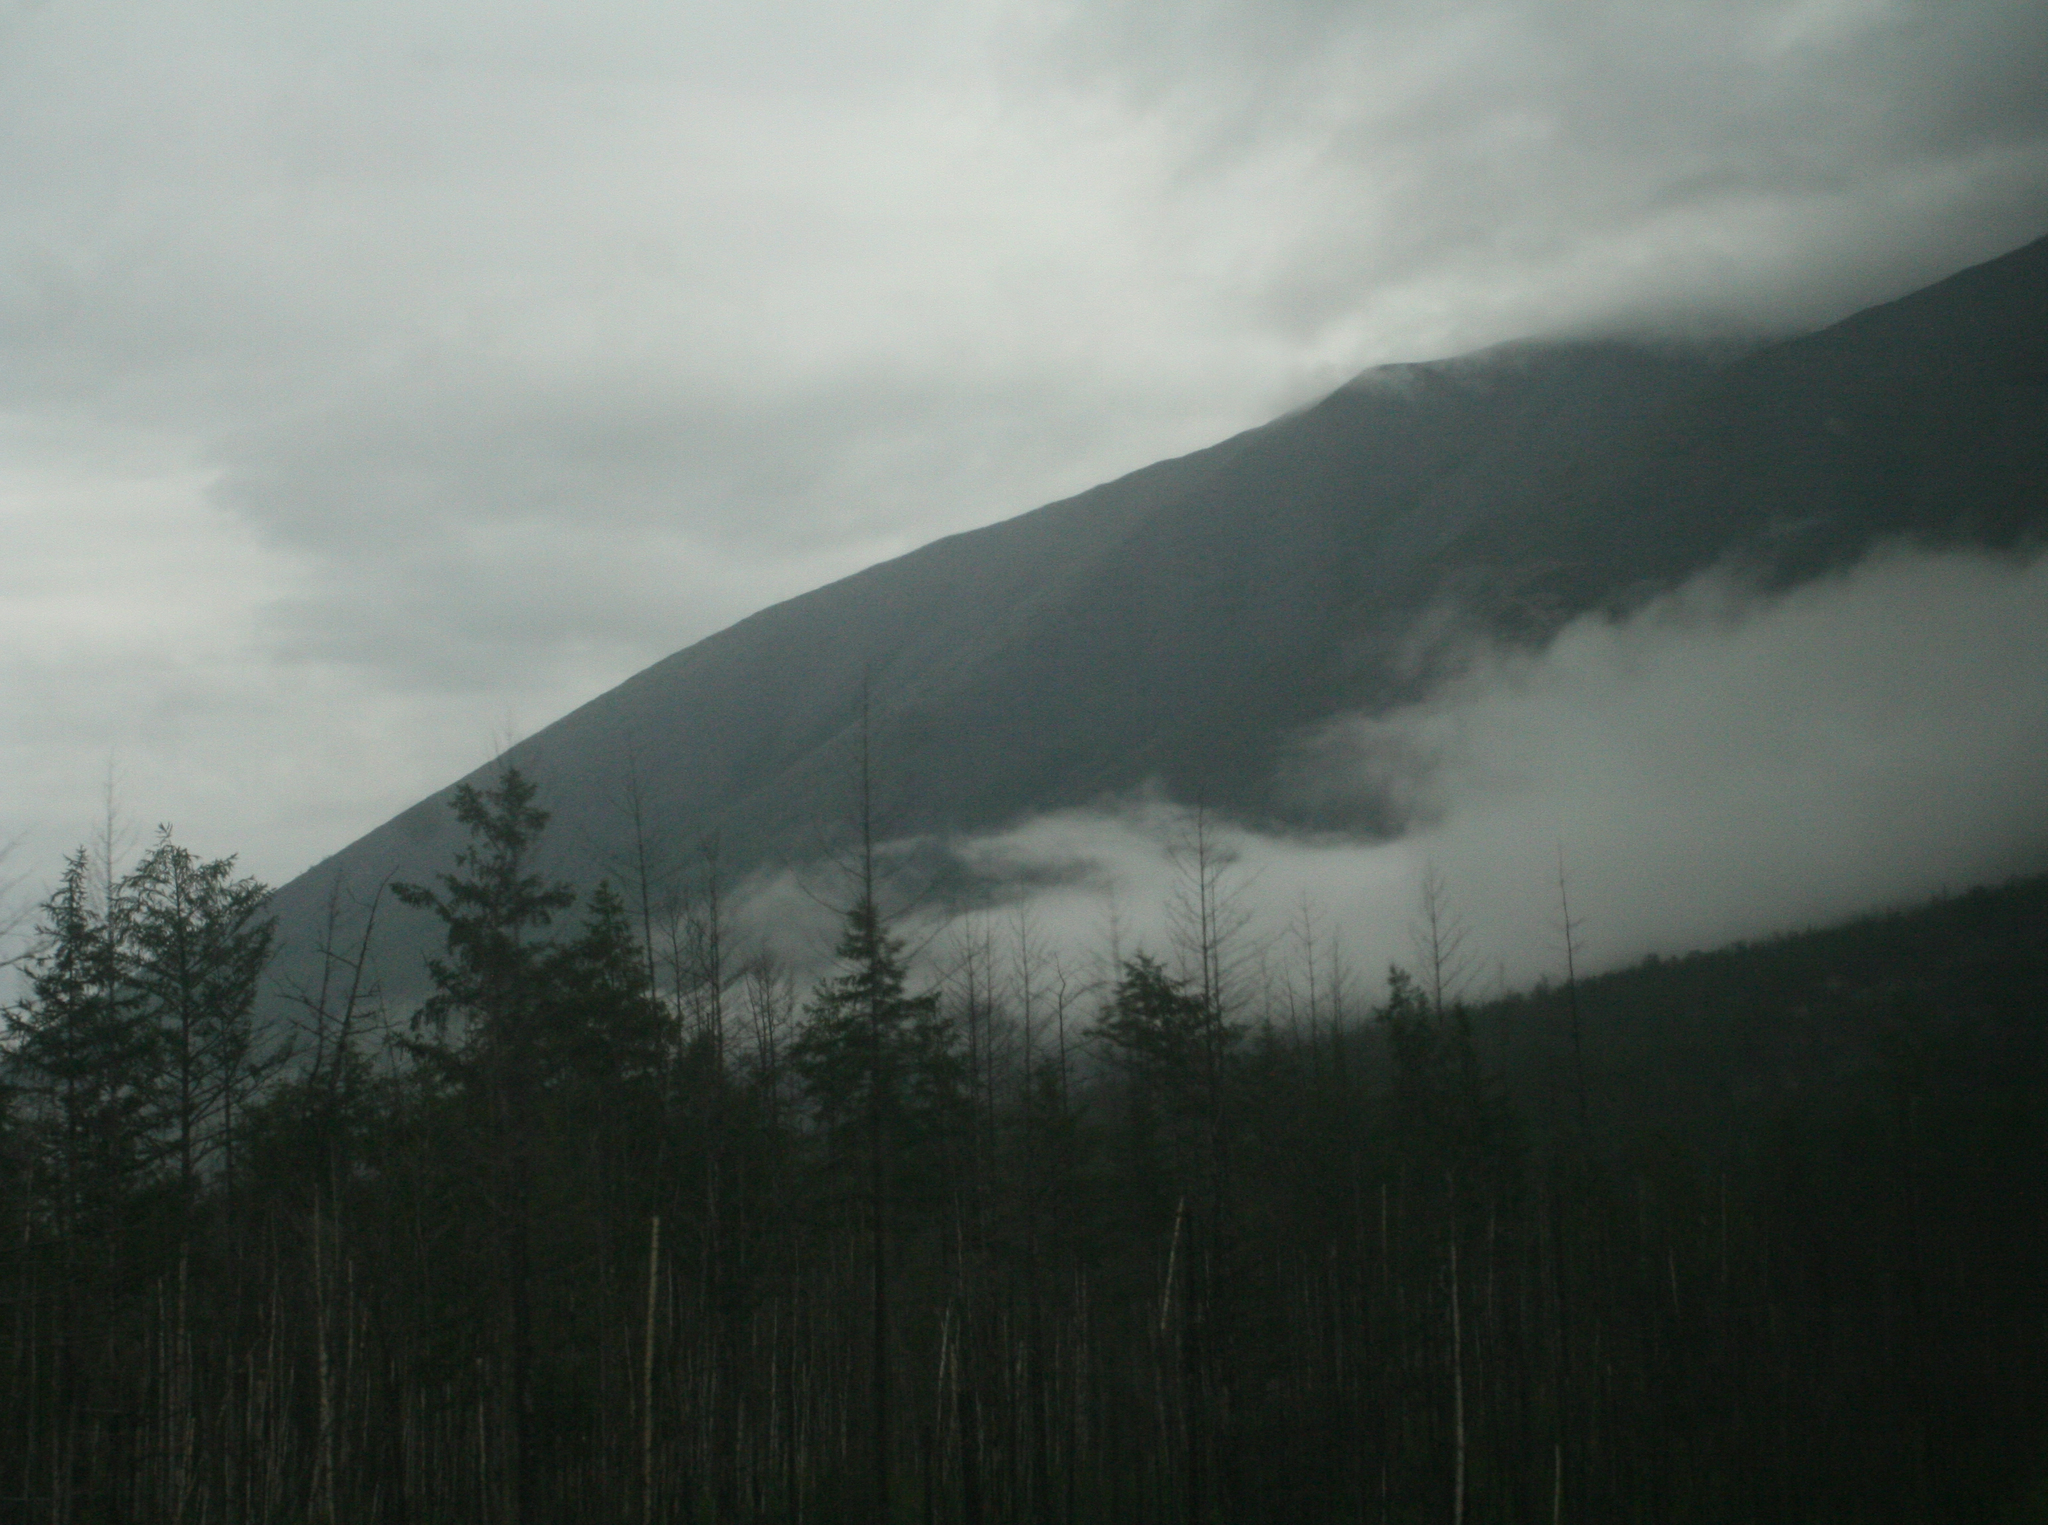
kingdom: Plantae
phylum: Tracheophyta
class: Pinopsida
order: Pinales
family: Pinaceae
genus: Larix
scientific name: Larix gmelinii
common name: Dahurian larch
